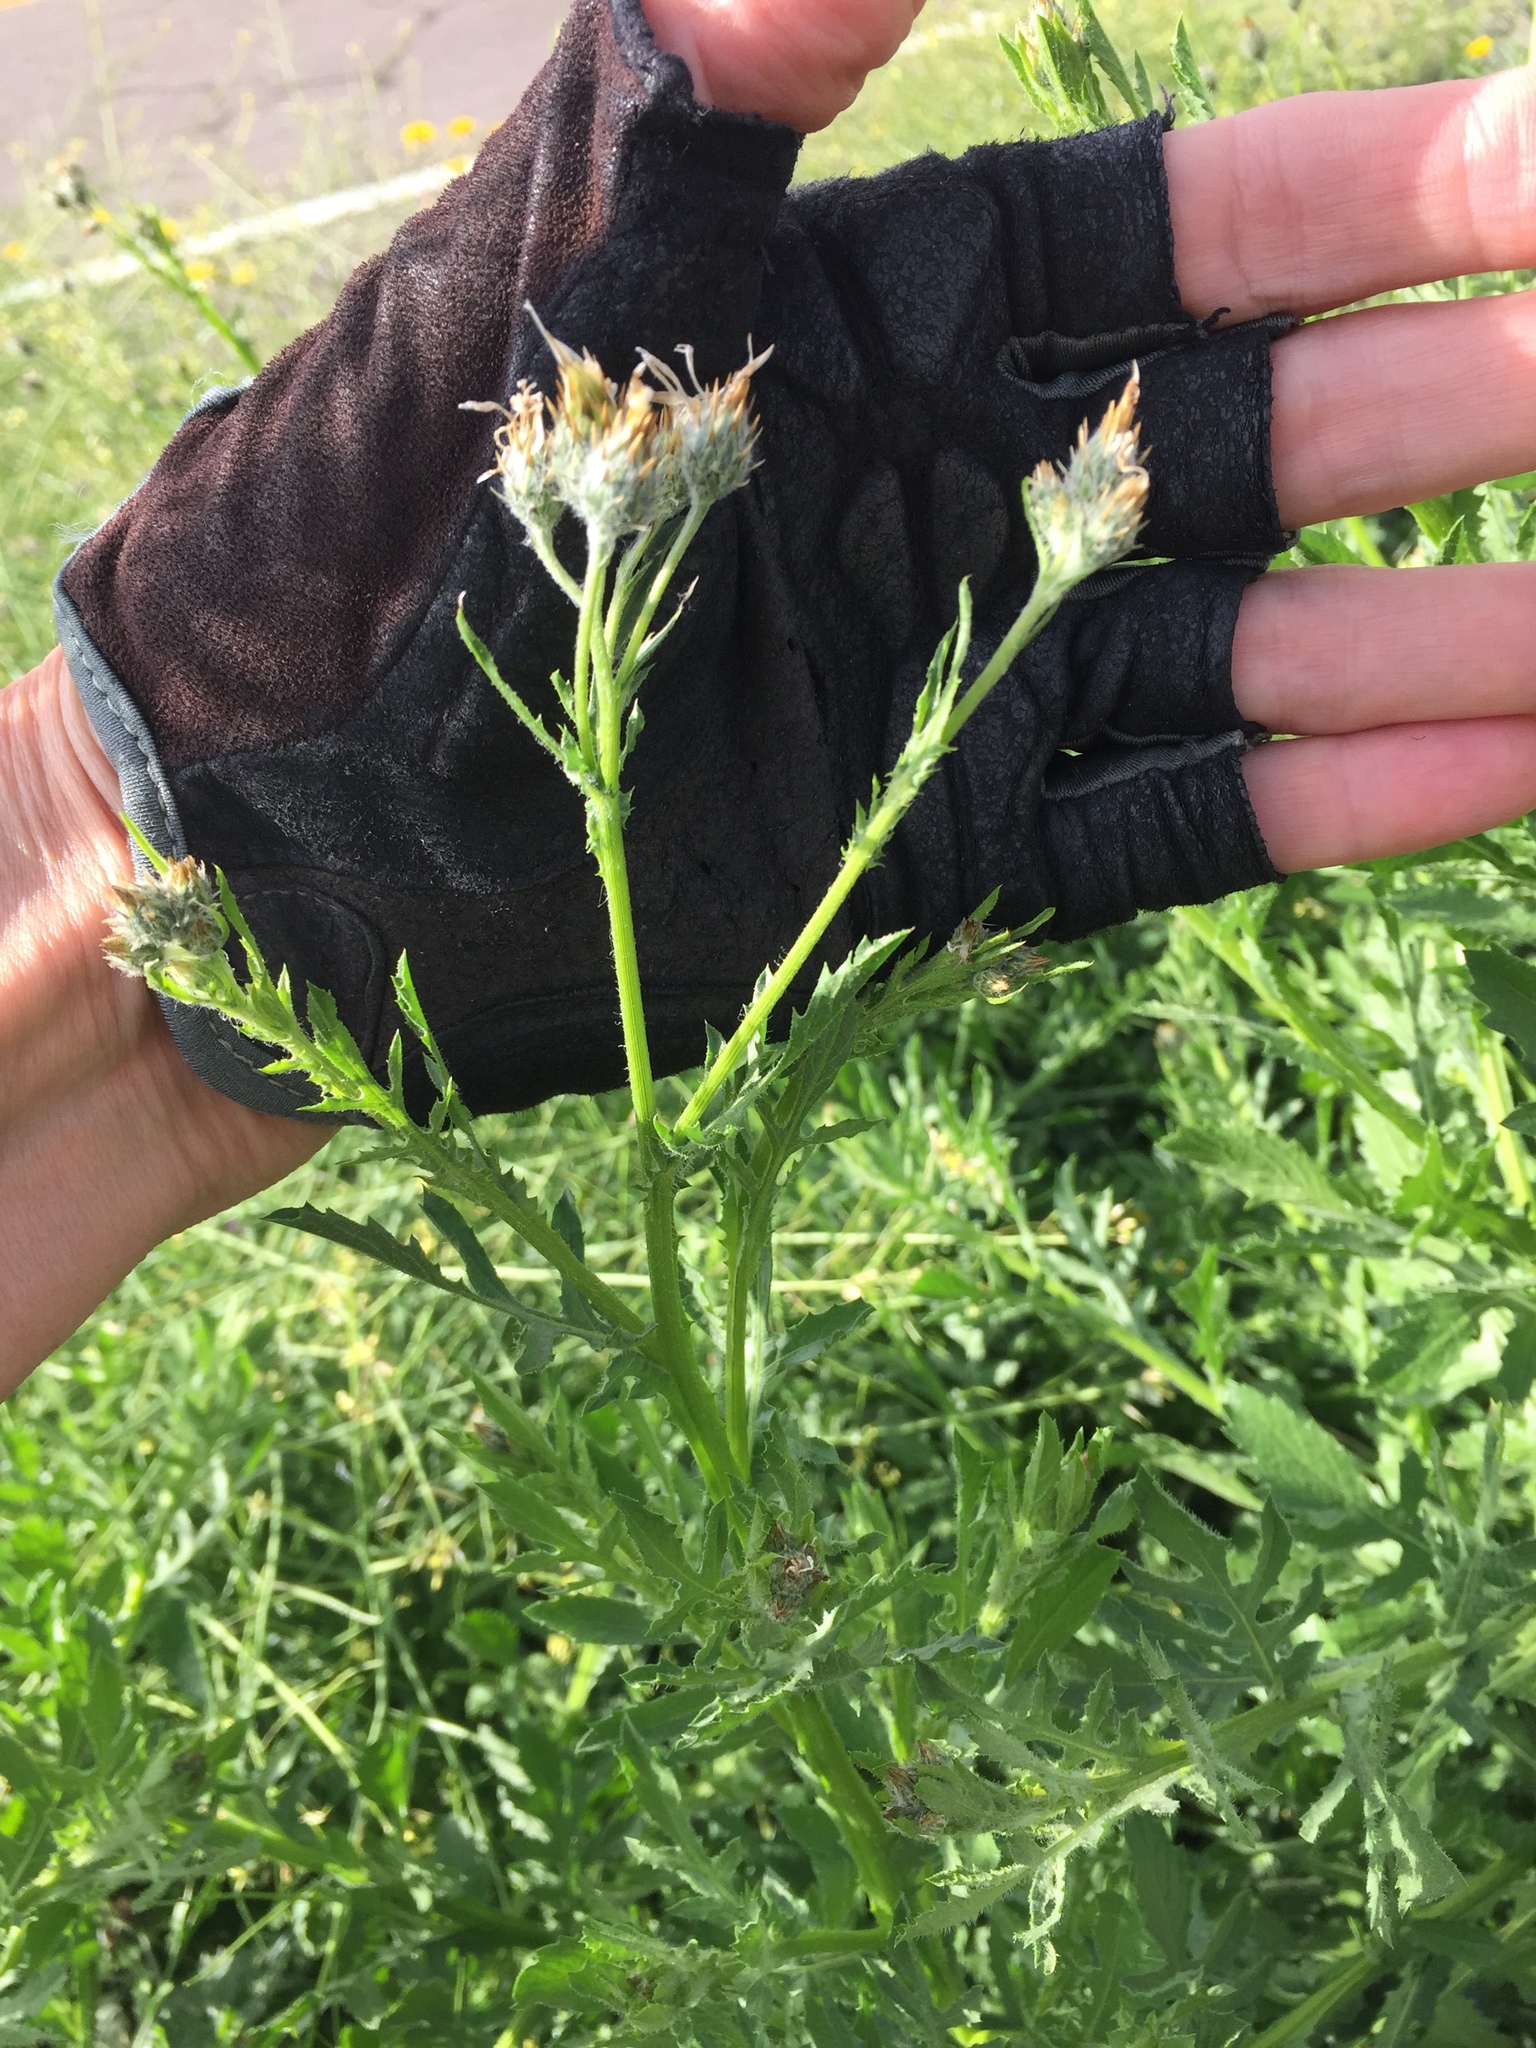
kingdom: Plantae
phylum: Tracheophyta
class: Magnoliopsida
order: Asterales
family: Asteraceae
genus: Volutaria
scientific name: Volutaria tubuliflora
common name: Desert knapweed
